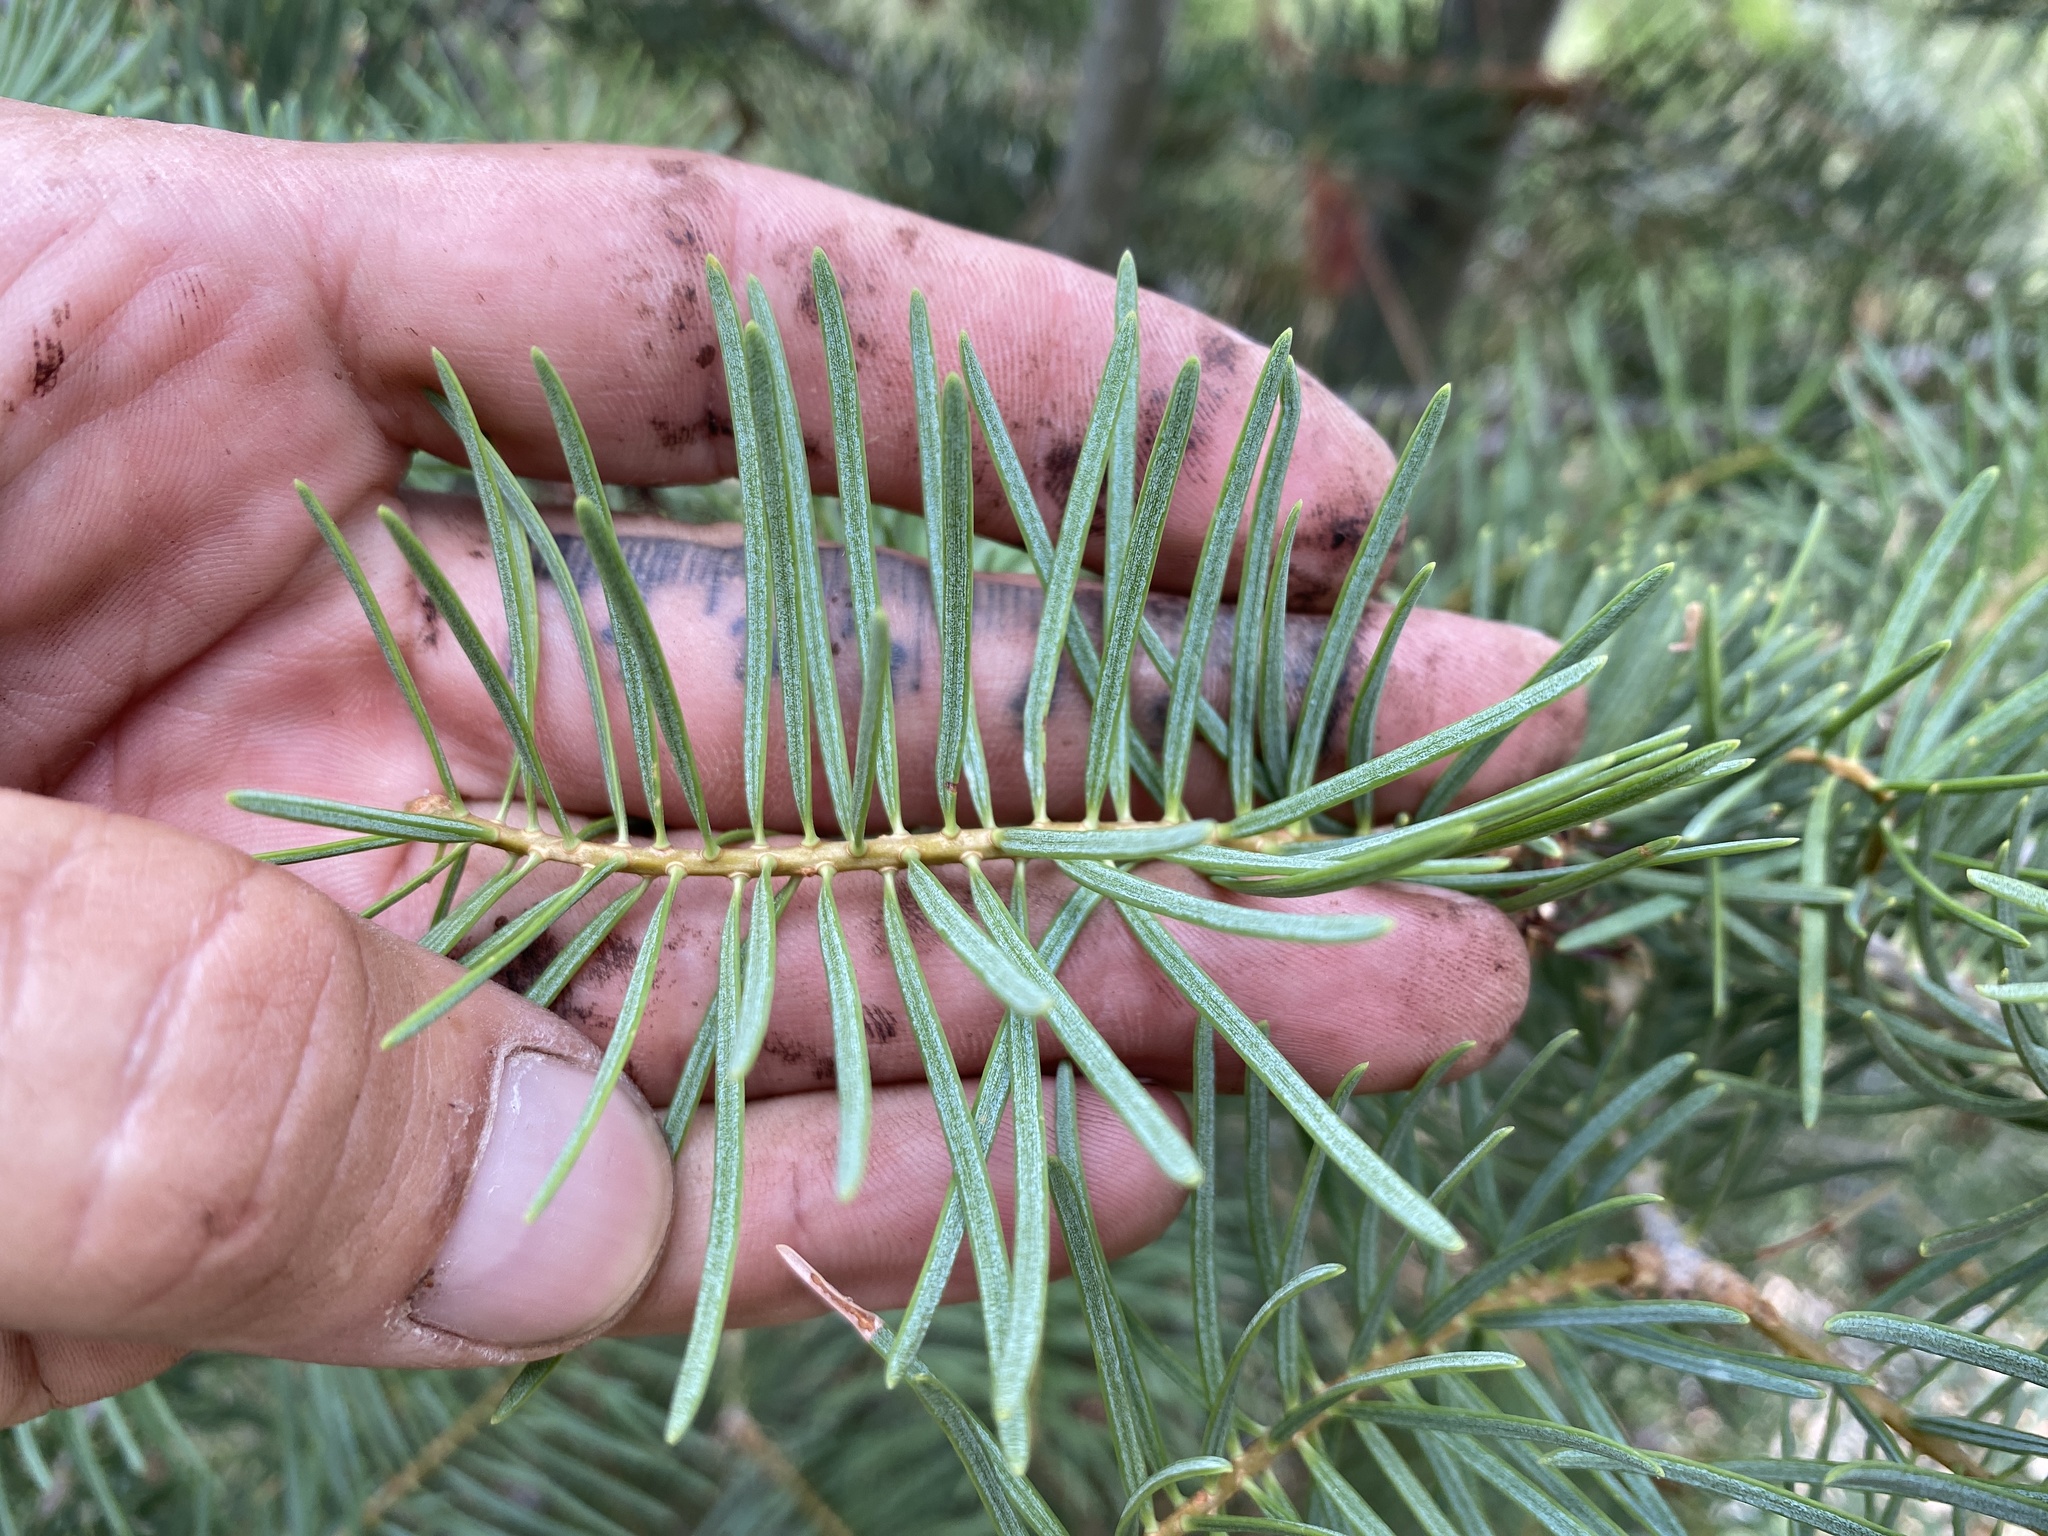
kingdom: Plantae
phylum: Tracheophyta
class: Pinopsida
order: Pinales
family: Pinaceae
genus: Abies
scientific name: Abies concolor
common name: Colorado fir
